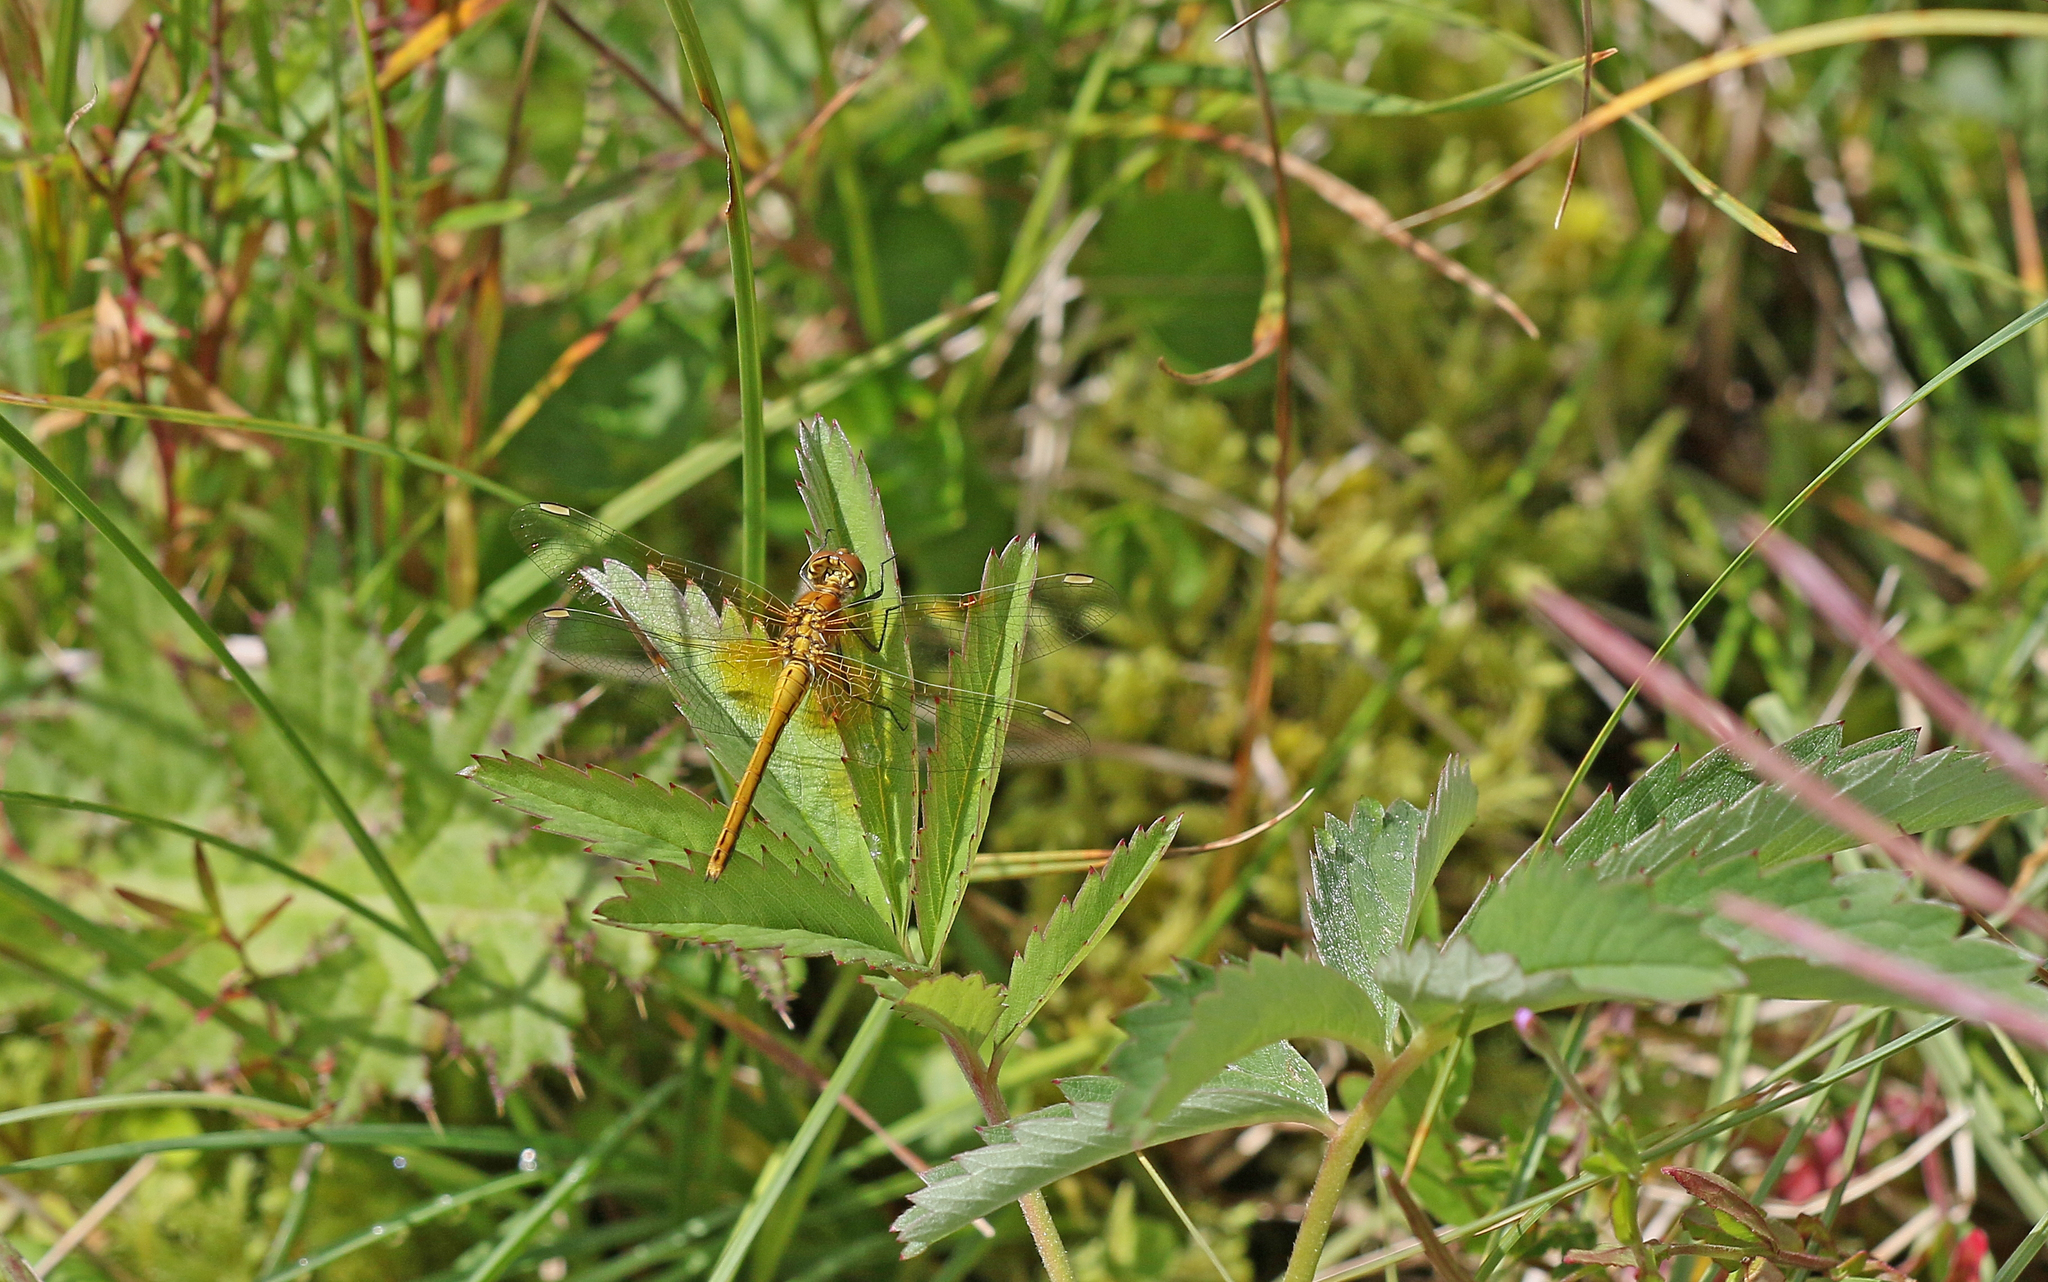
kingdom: Animalia
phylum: Arthropoda
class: Insecta
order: Odonata
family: Libellulidae
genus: Sympetrum
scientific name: Sympetrum flaveolum
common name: Yellow-winged darter
